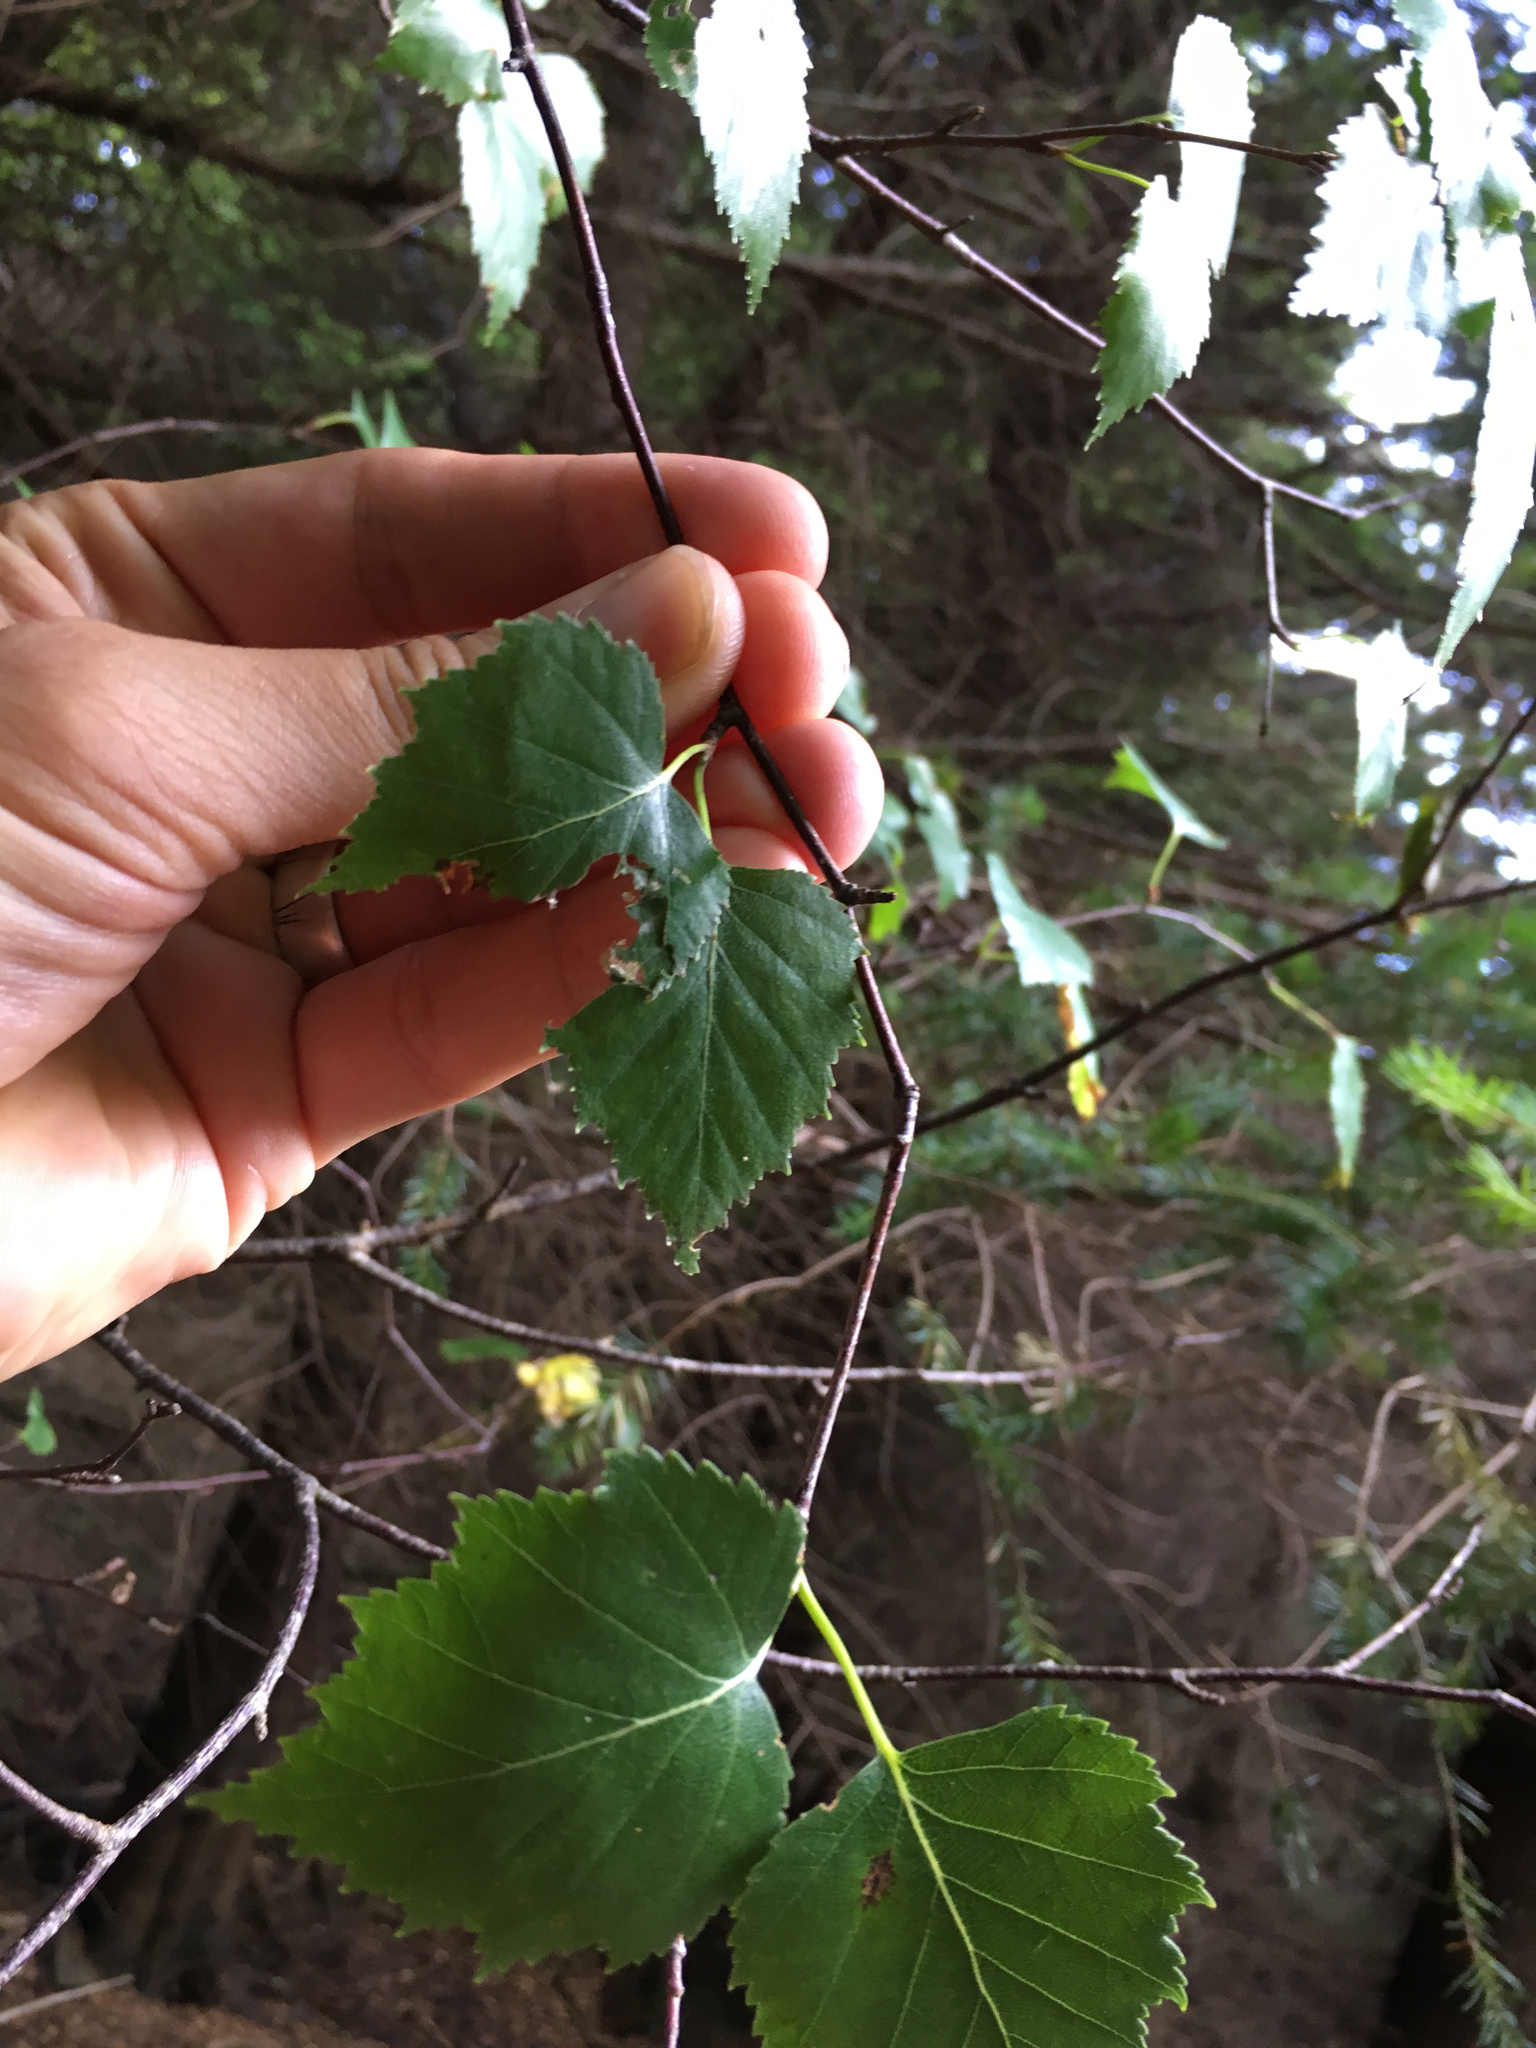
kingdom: Plantae
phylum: Tracheophyta
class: Magnoliopsida
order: Fagales
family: Betulaceae
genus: Betula
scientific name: Betula pendula
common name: Silver birch
